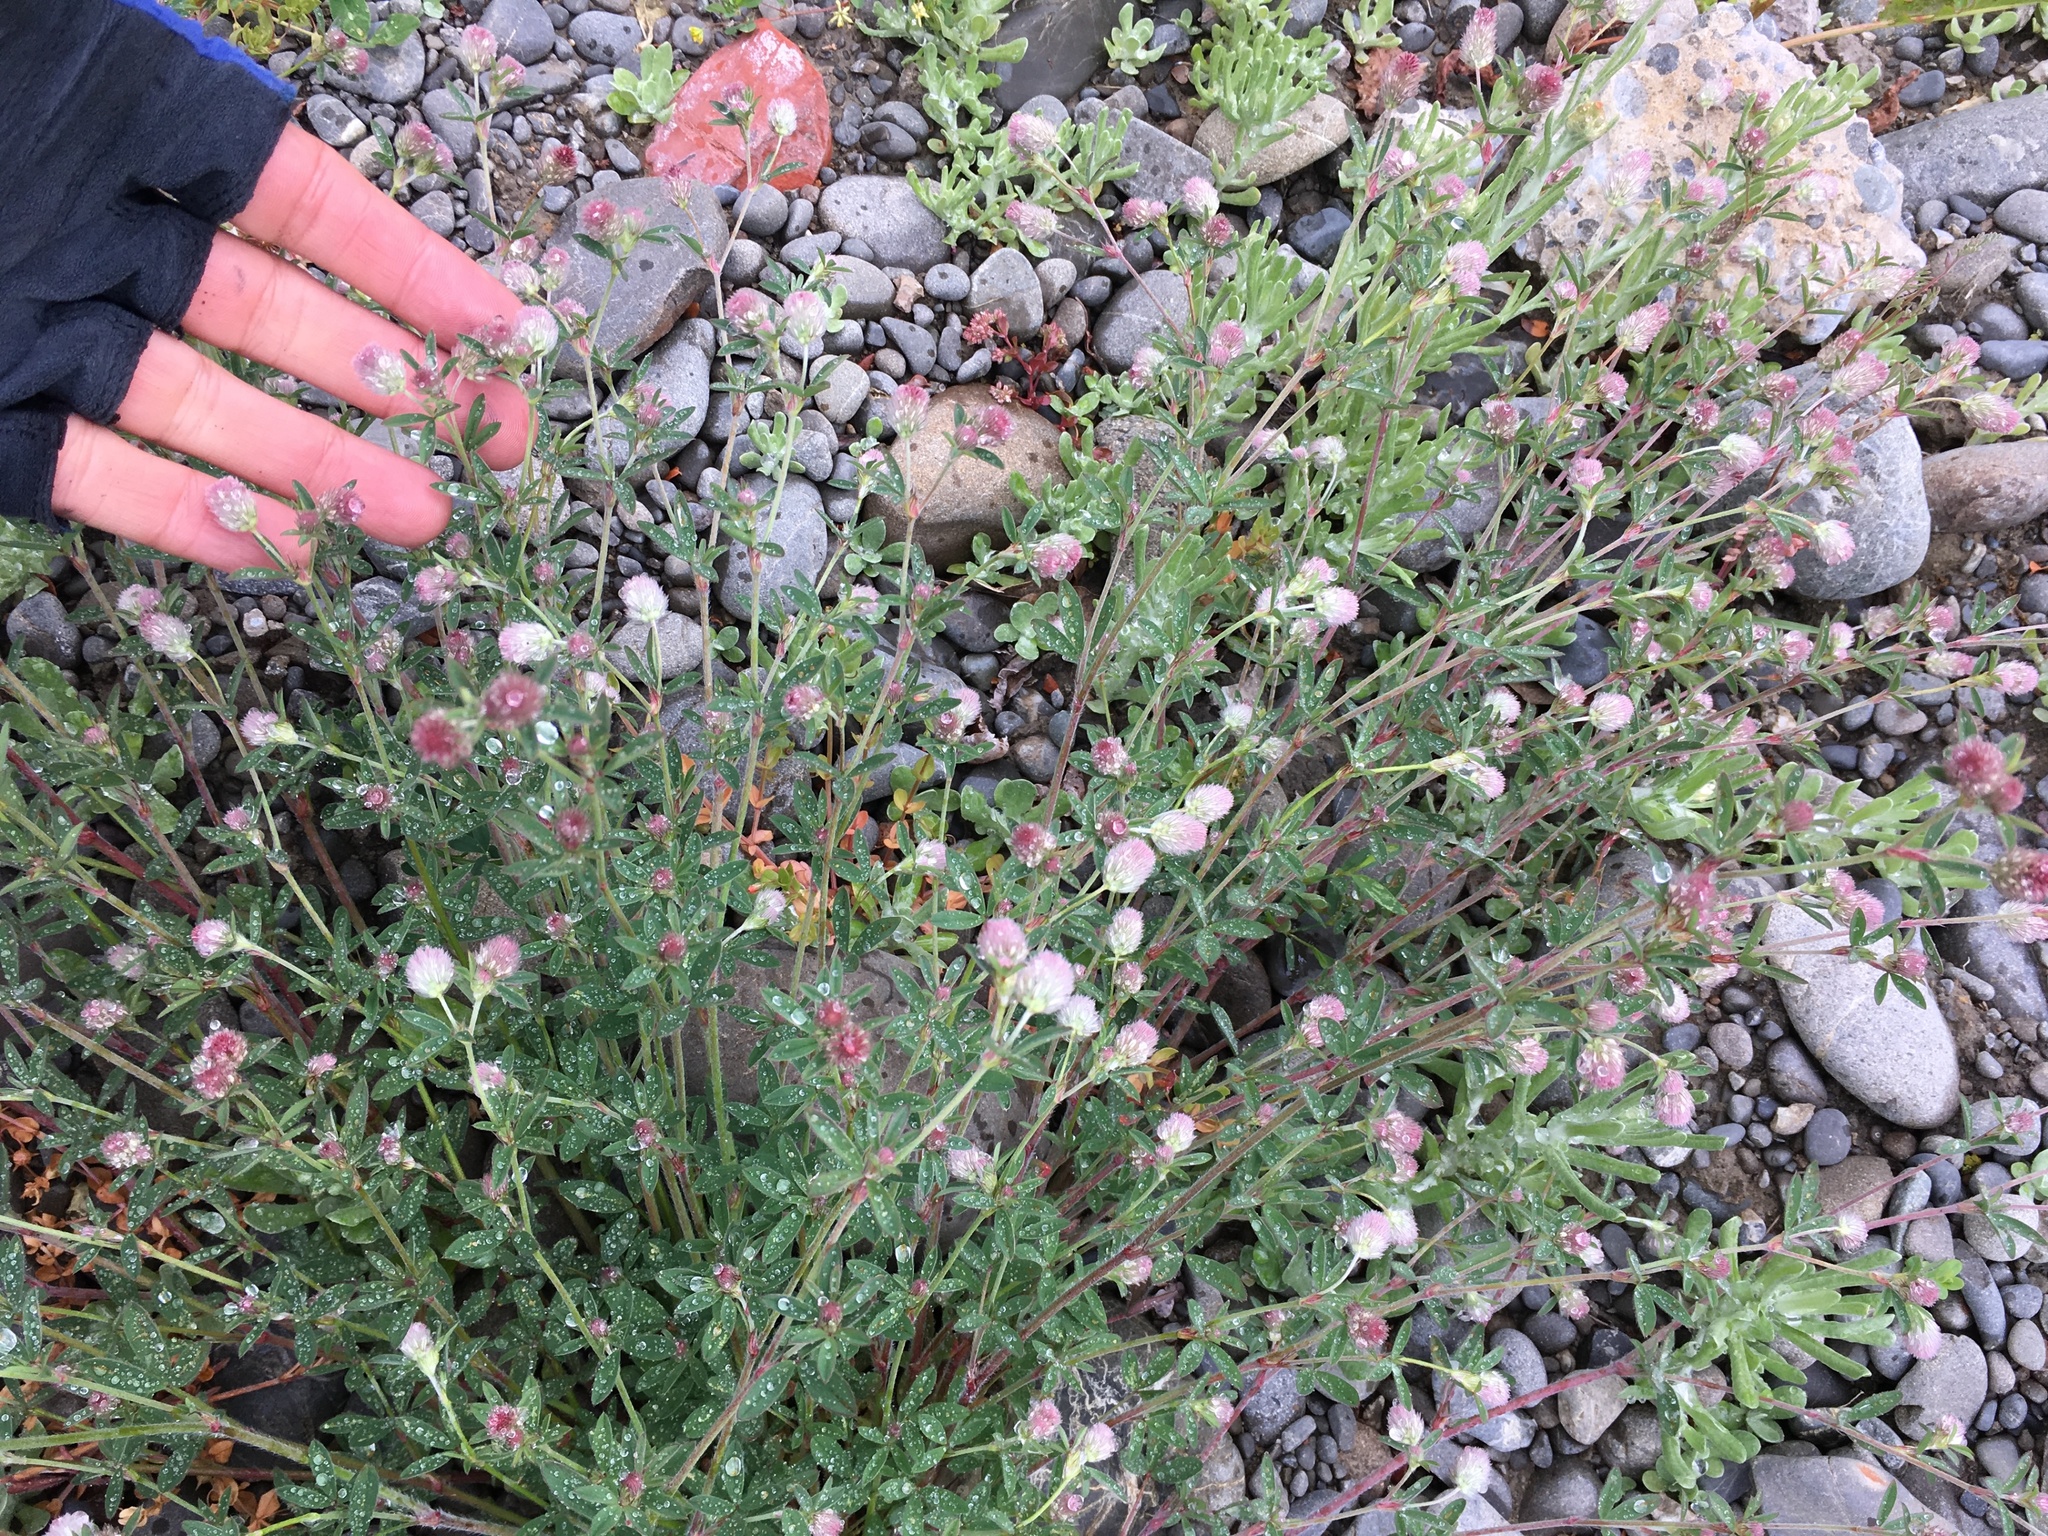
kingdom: Plantae
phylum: Tracheophyta
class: Magnoliopsida
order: Fabales
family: Fabaceae
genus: Trifolium
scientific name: Trifolium arvense
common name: Hare's-foot clover
